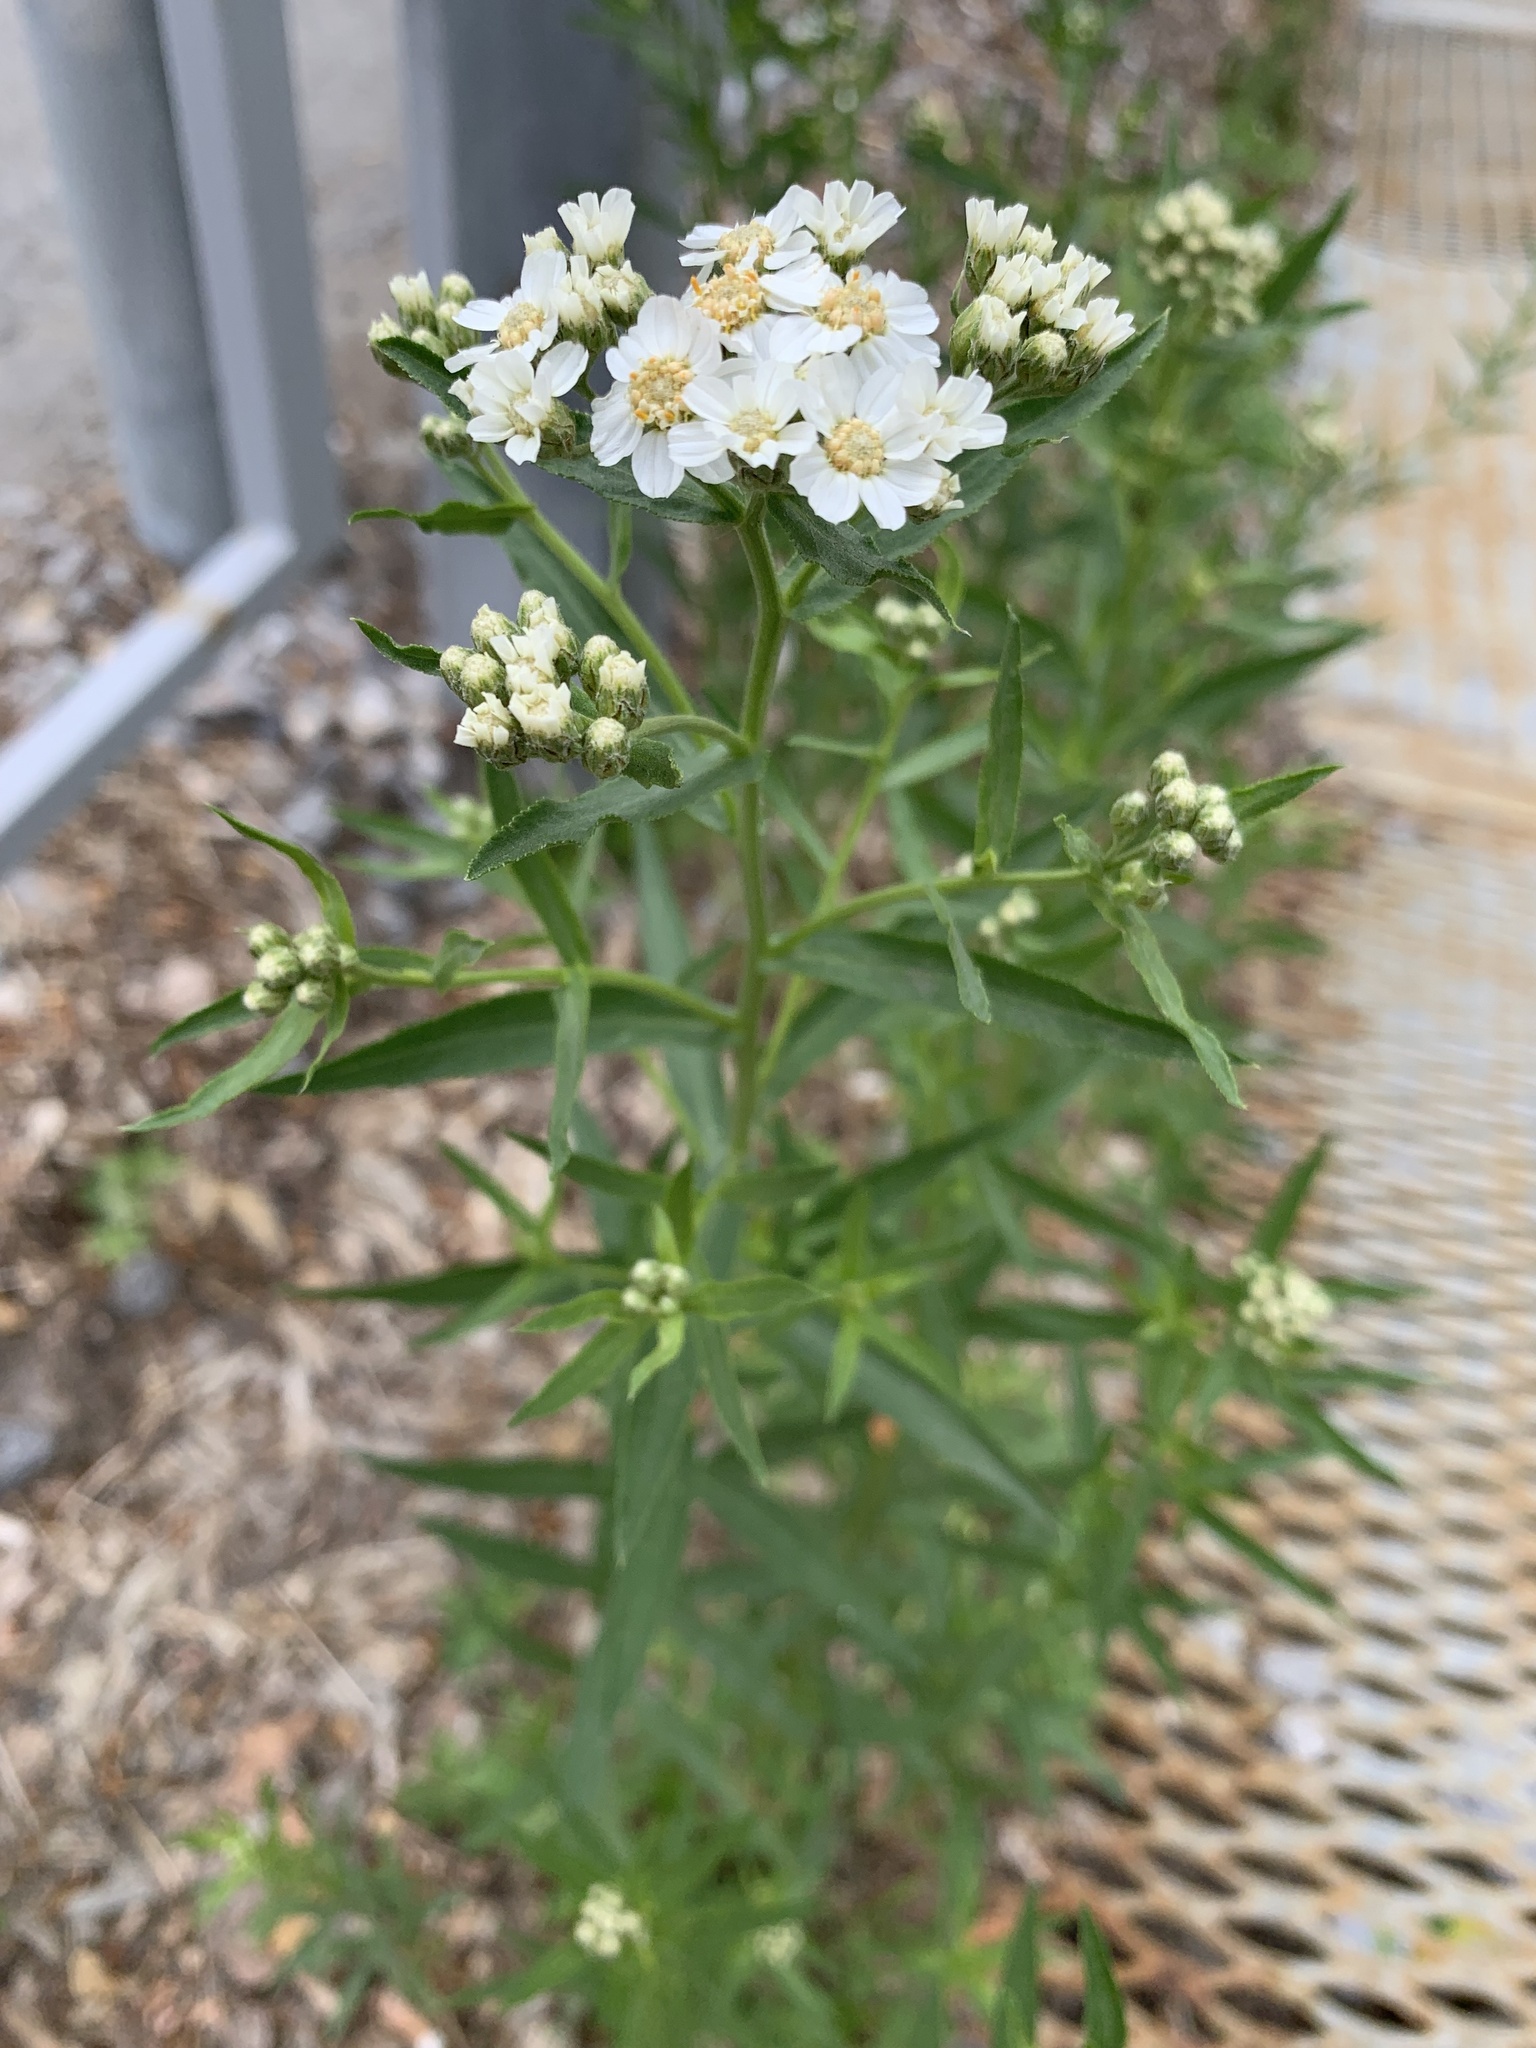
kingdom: Plantae
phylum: Tracheophyta
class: Magnoliopsida
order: Asterales
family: Asteraceae
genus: Achillea
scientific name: Achillea salicifolia
